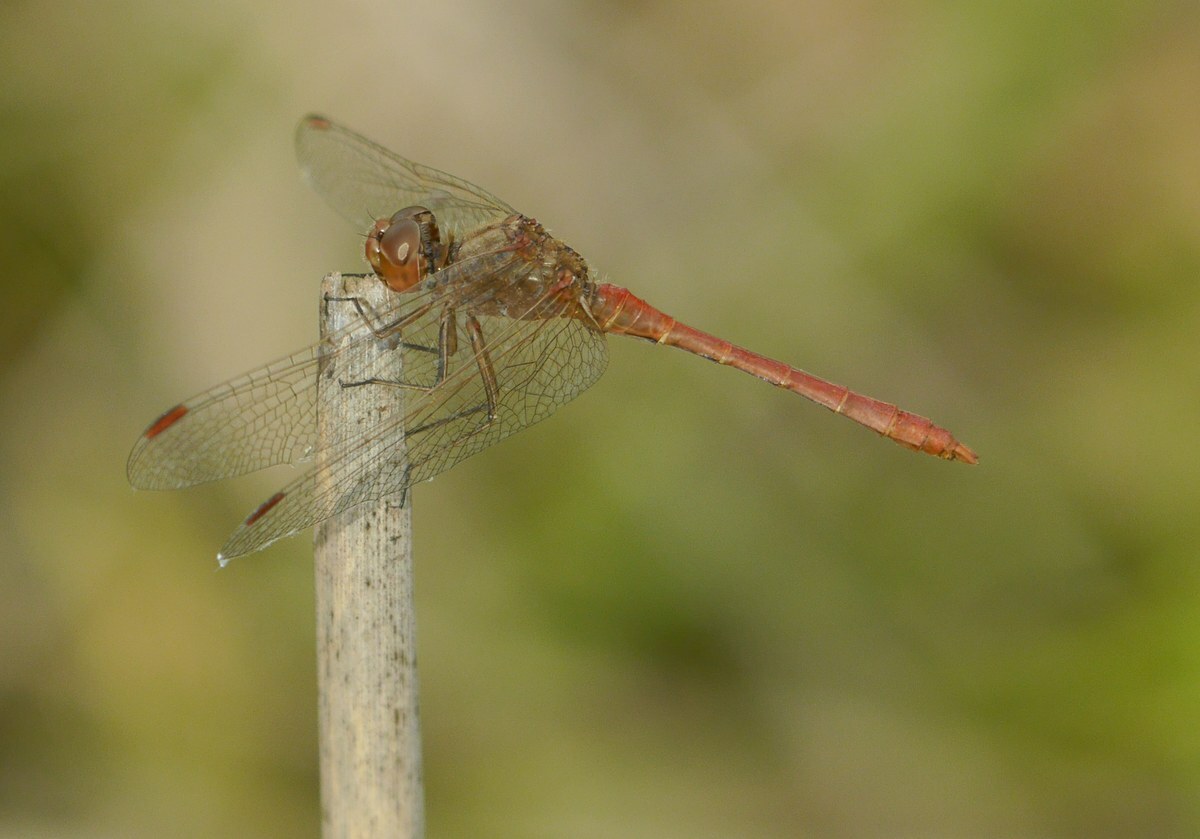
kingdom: Animalia
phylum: Arthropoda
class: Insecta
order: Odonata
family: Libellulidae
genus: Sympetrum
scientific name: Sympetrum meridionale
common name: Southern darter
